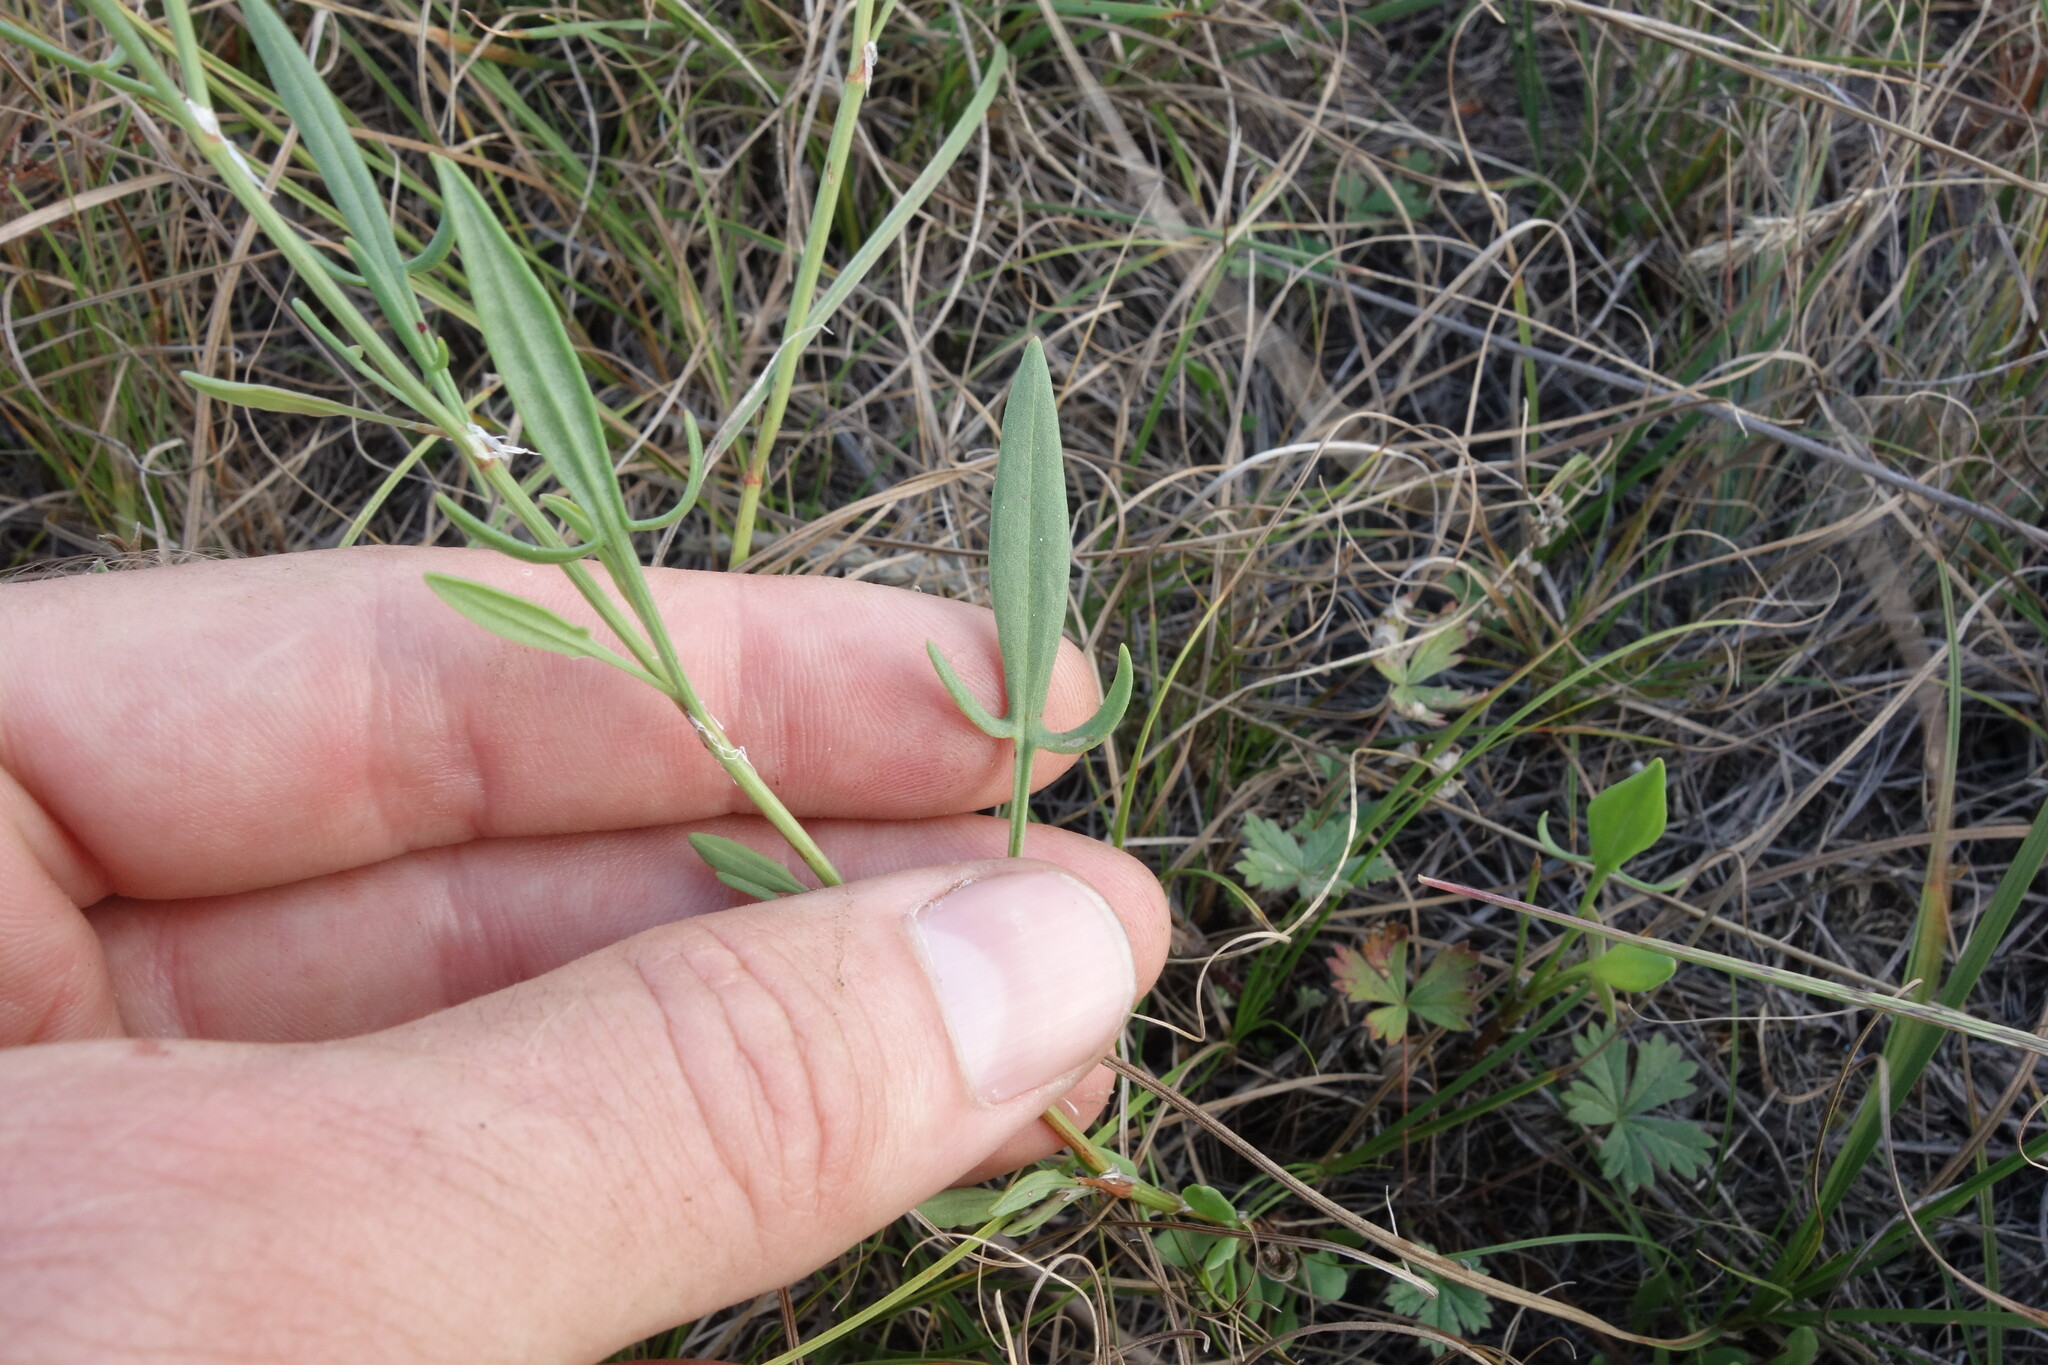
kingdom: Plantae
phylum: Tracheophyta
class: Magnoliopsida
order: Caryophyllales
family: Polygonaceae
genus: Rumex
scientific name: Rumex acetosella
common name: Common sheep sorrel
